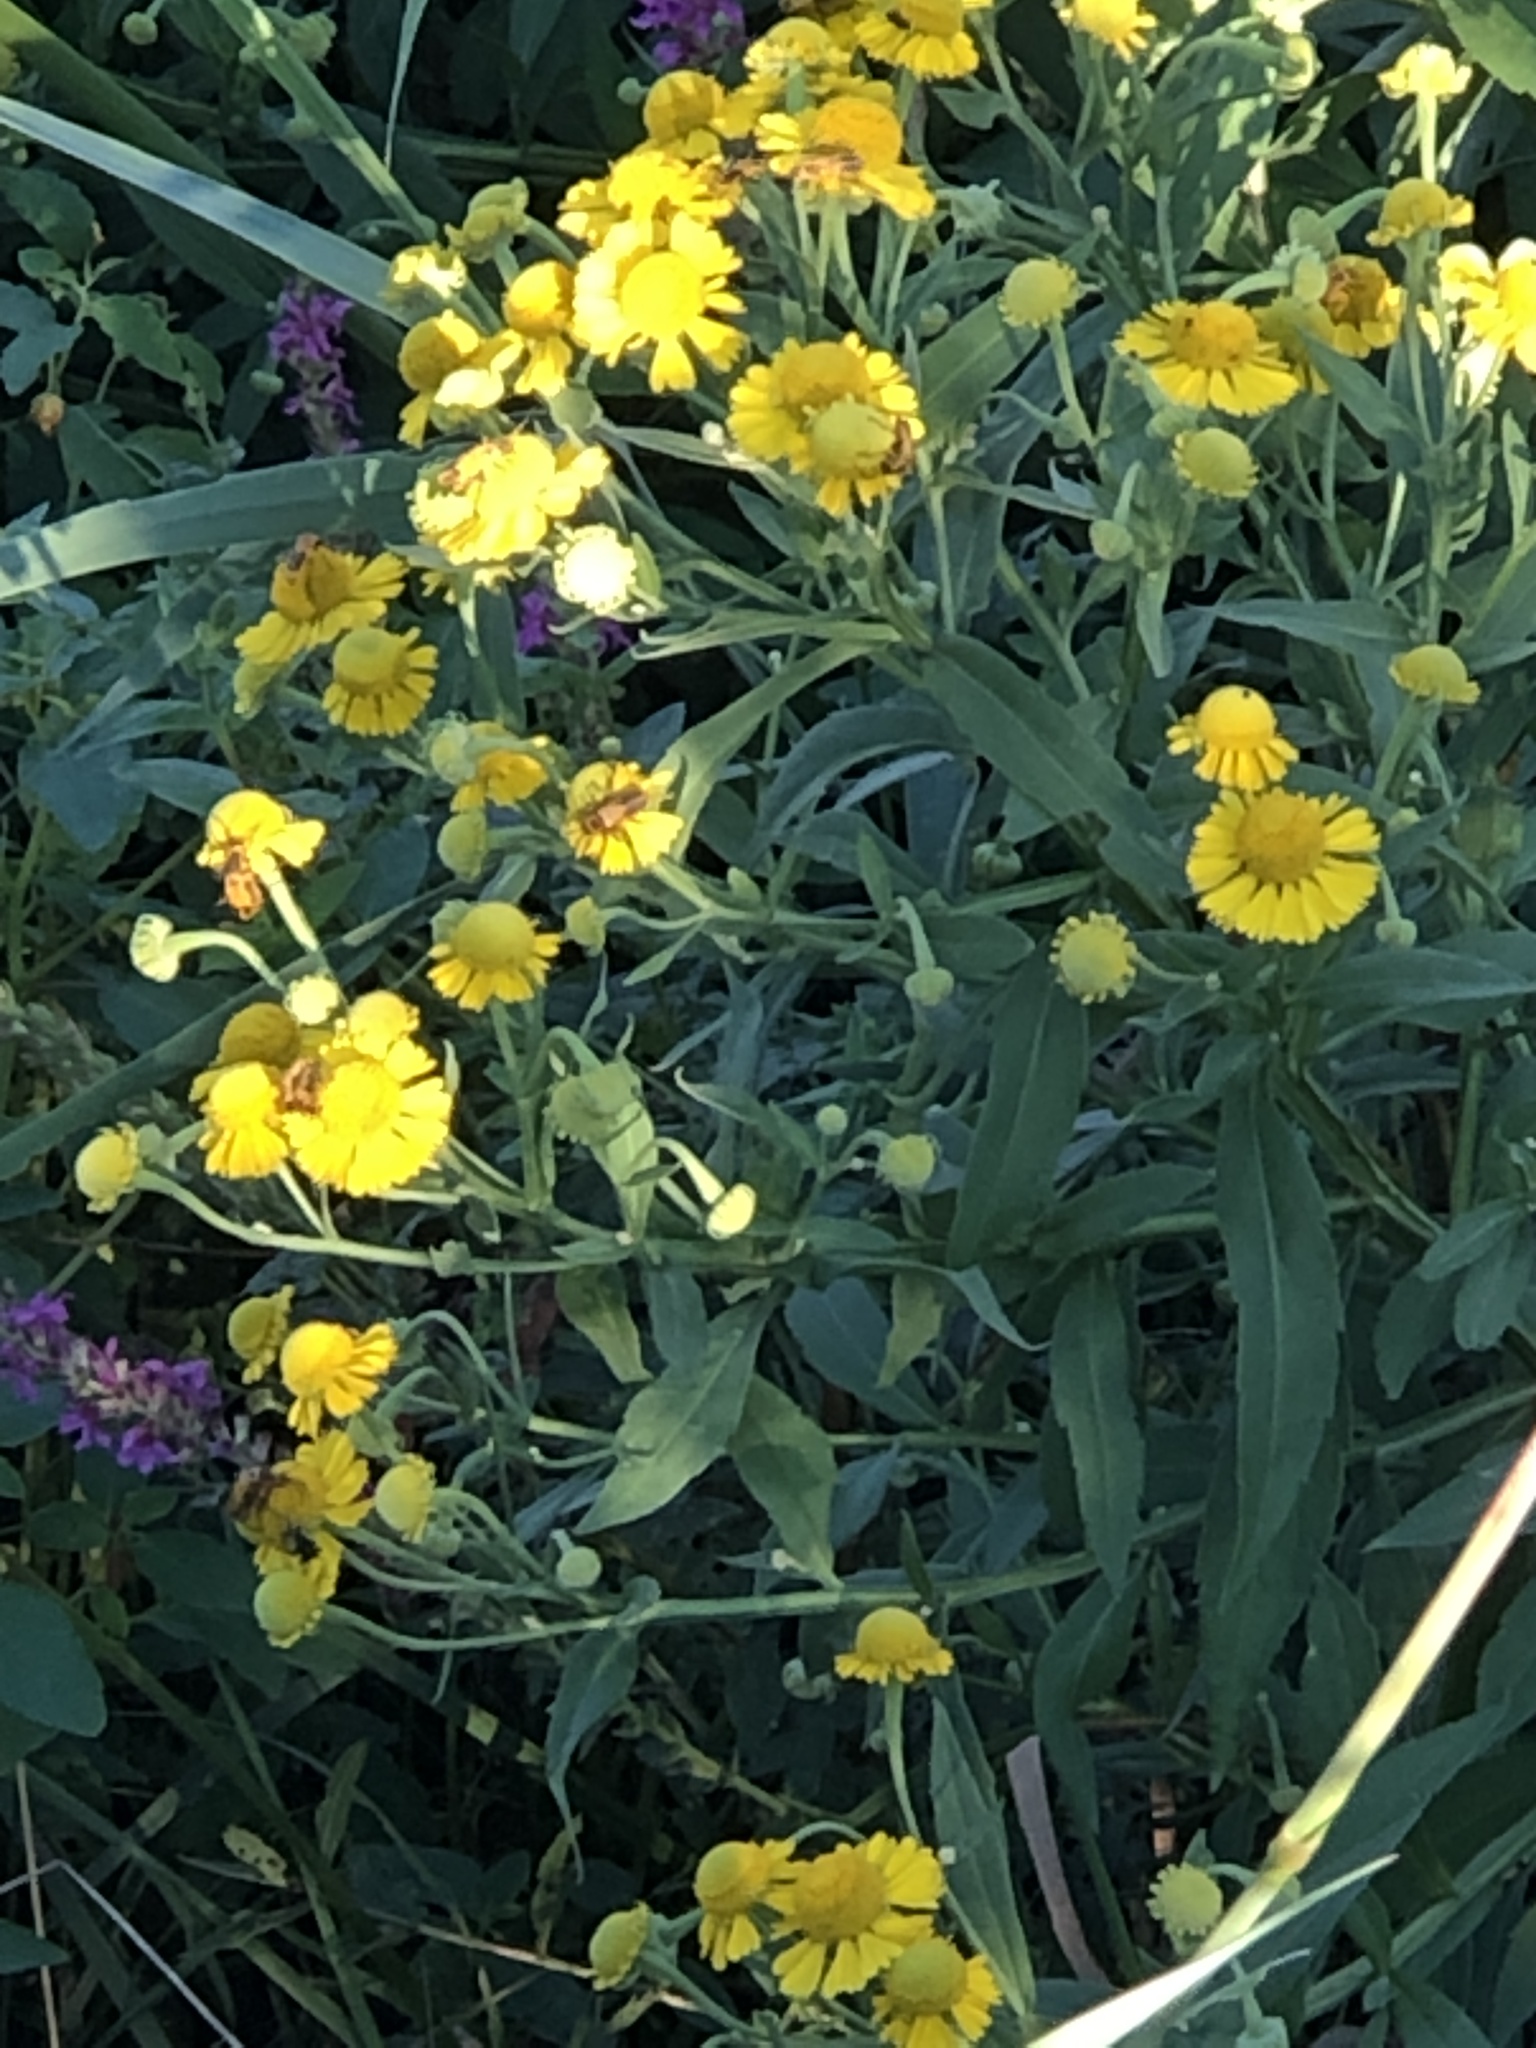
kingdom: Plantae
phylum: Tracheophyta
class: Magnoliopsida
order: Asterales
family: Asteraceae
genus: Helenium
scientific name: Helenium autumnale
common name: Sneezeweed
